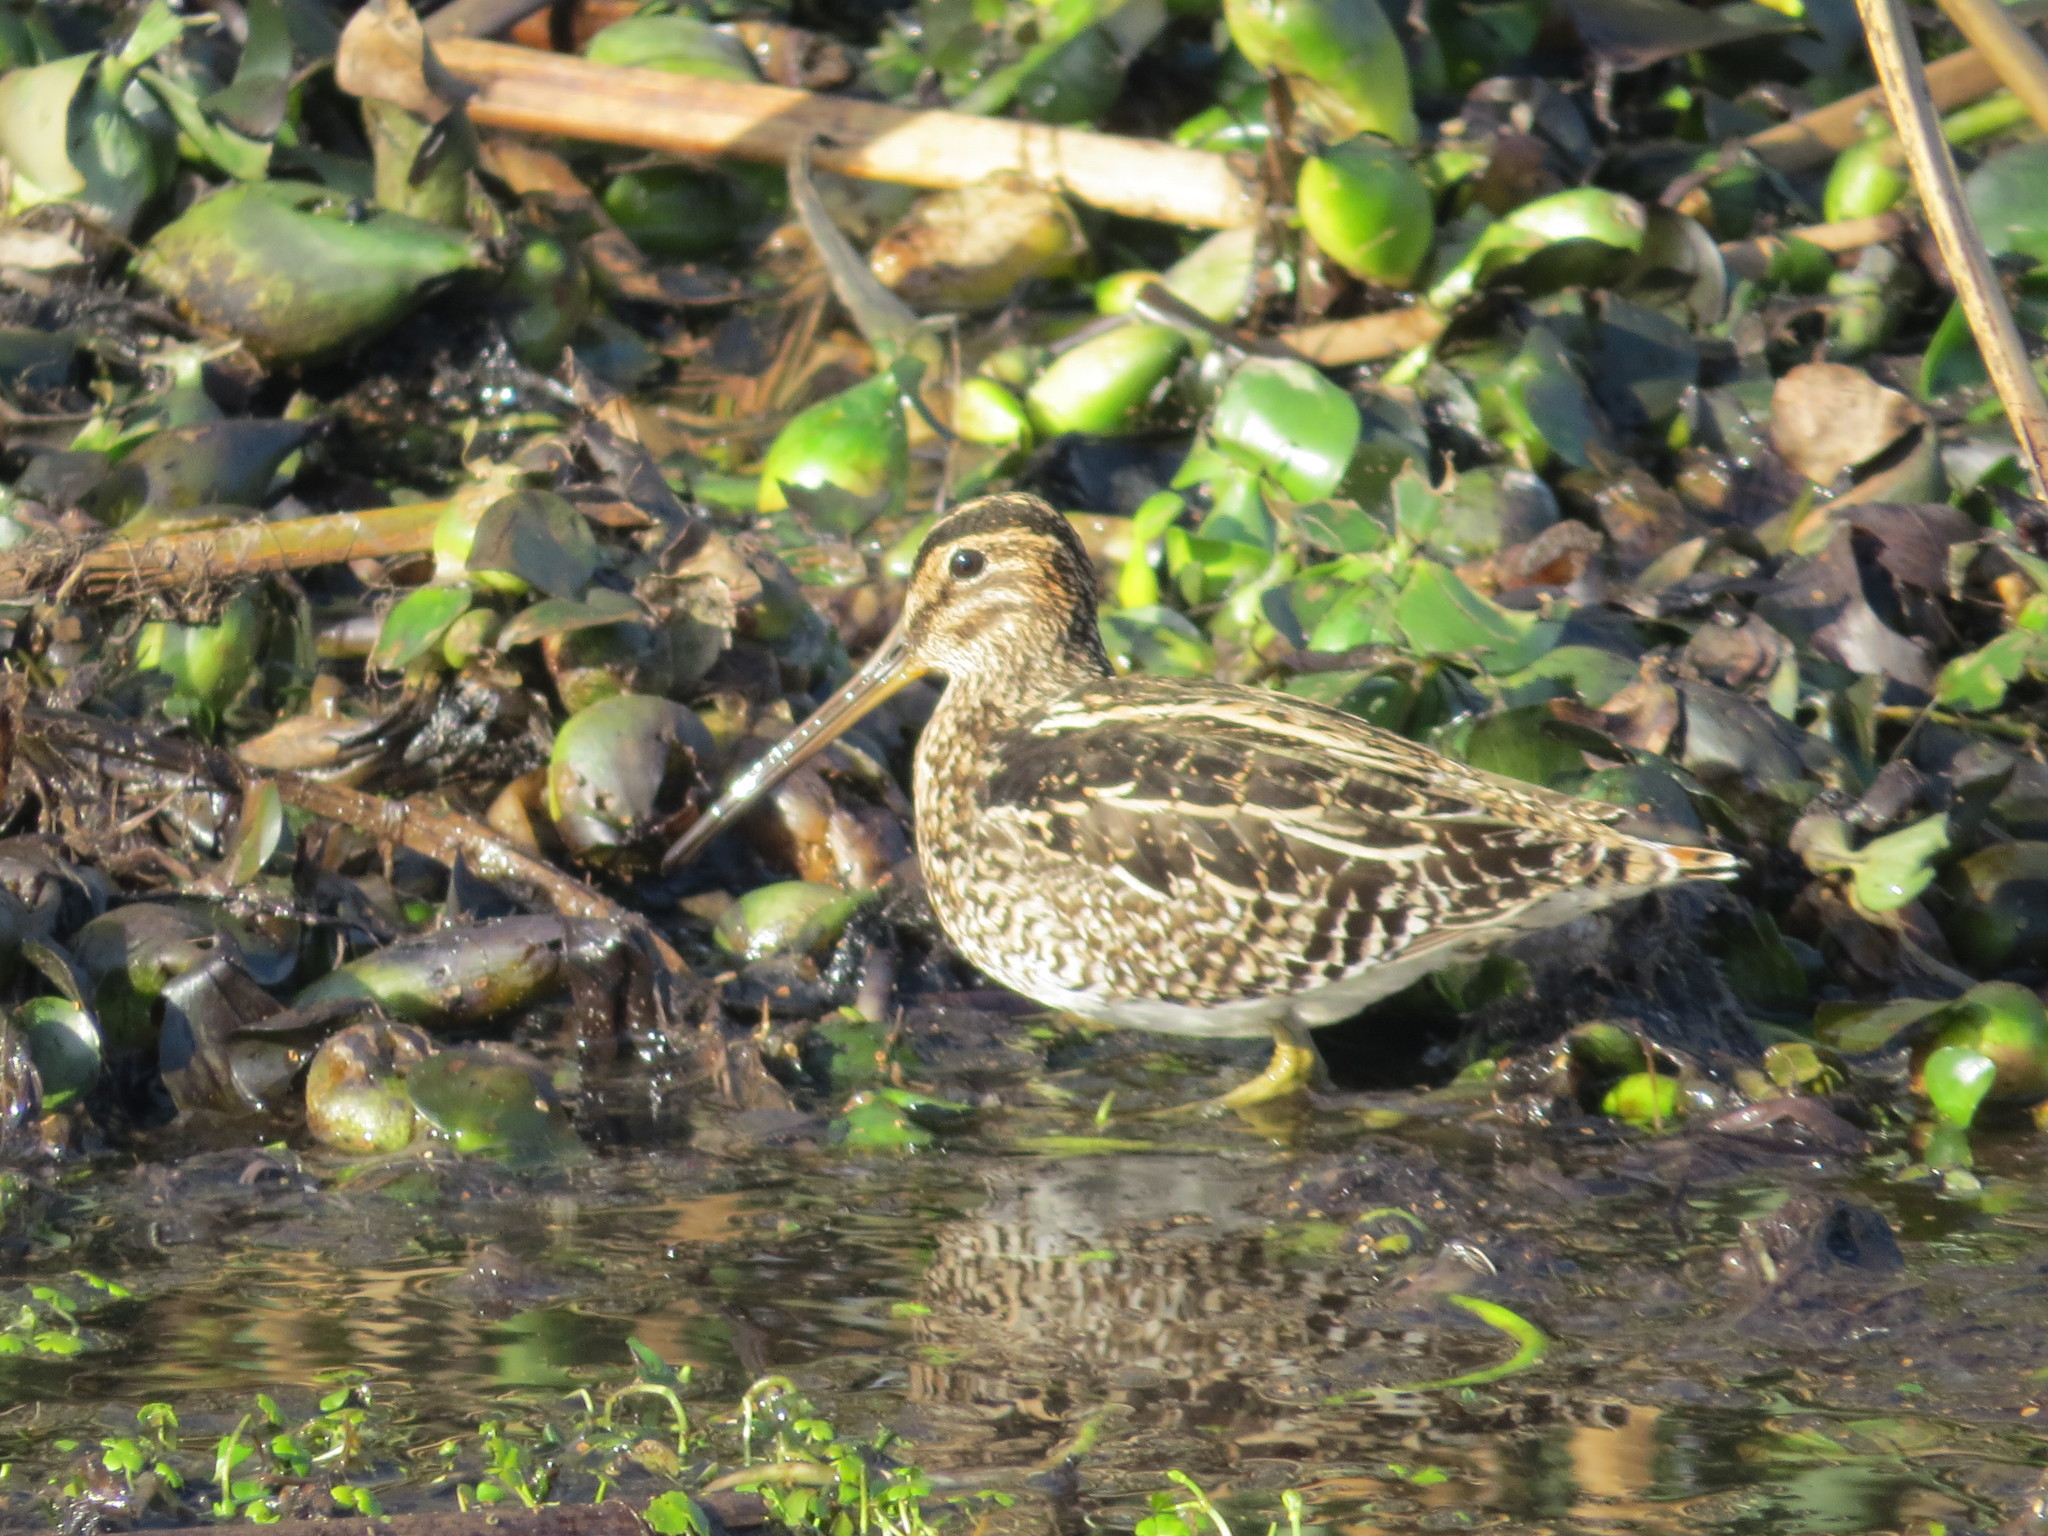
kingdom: Animalia
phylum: Chordata
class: Aves
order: Charadriiformes
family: Scolopacidae
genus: Gallinago
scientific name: Gallinago paraguaiae
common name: South american snipe
